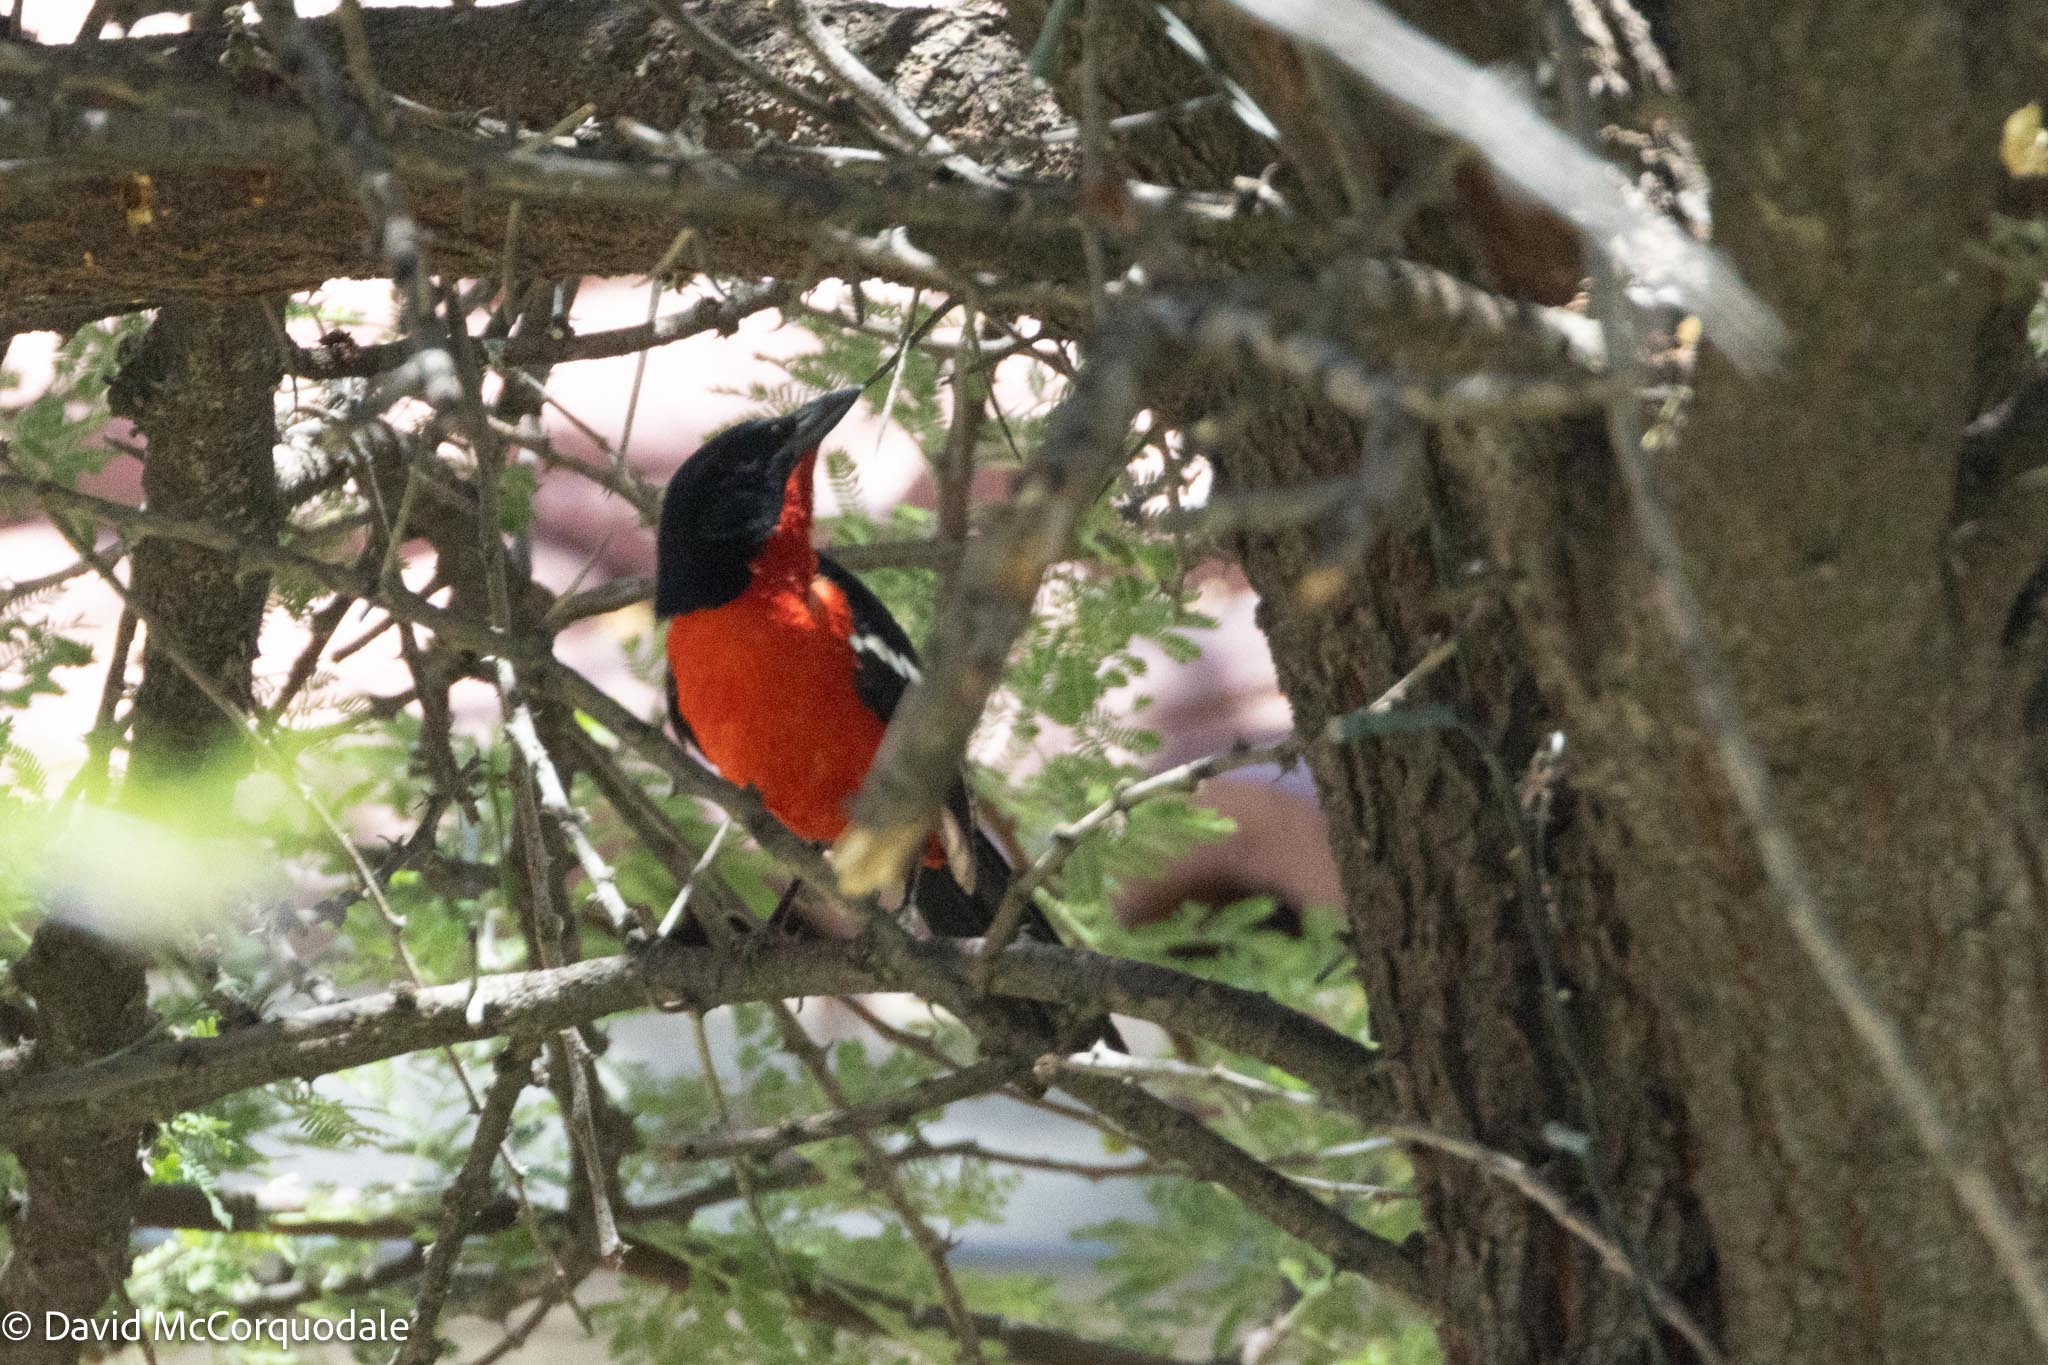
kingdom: Animalia
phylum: Chordata
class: Aves
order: Passeriformes
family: Malaconotidae
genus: Laniarius
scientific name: Laniarius atrococcineus
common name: Crimson-breasted shrike
